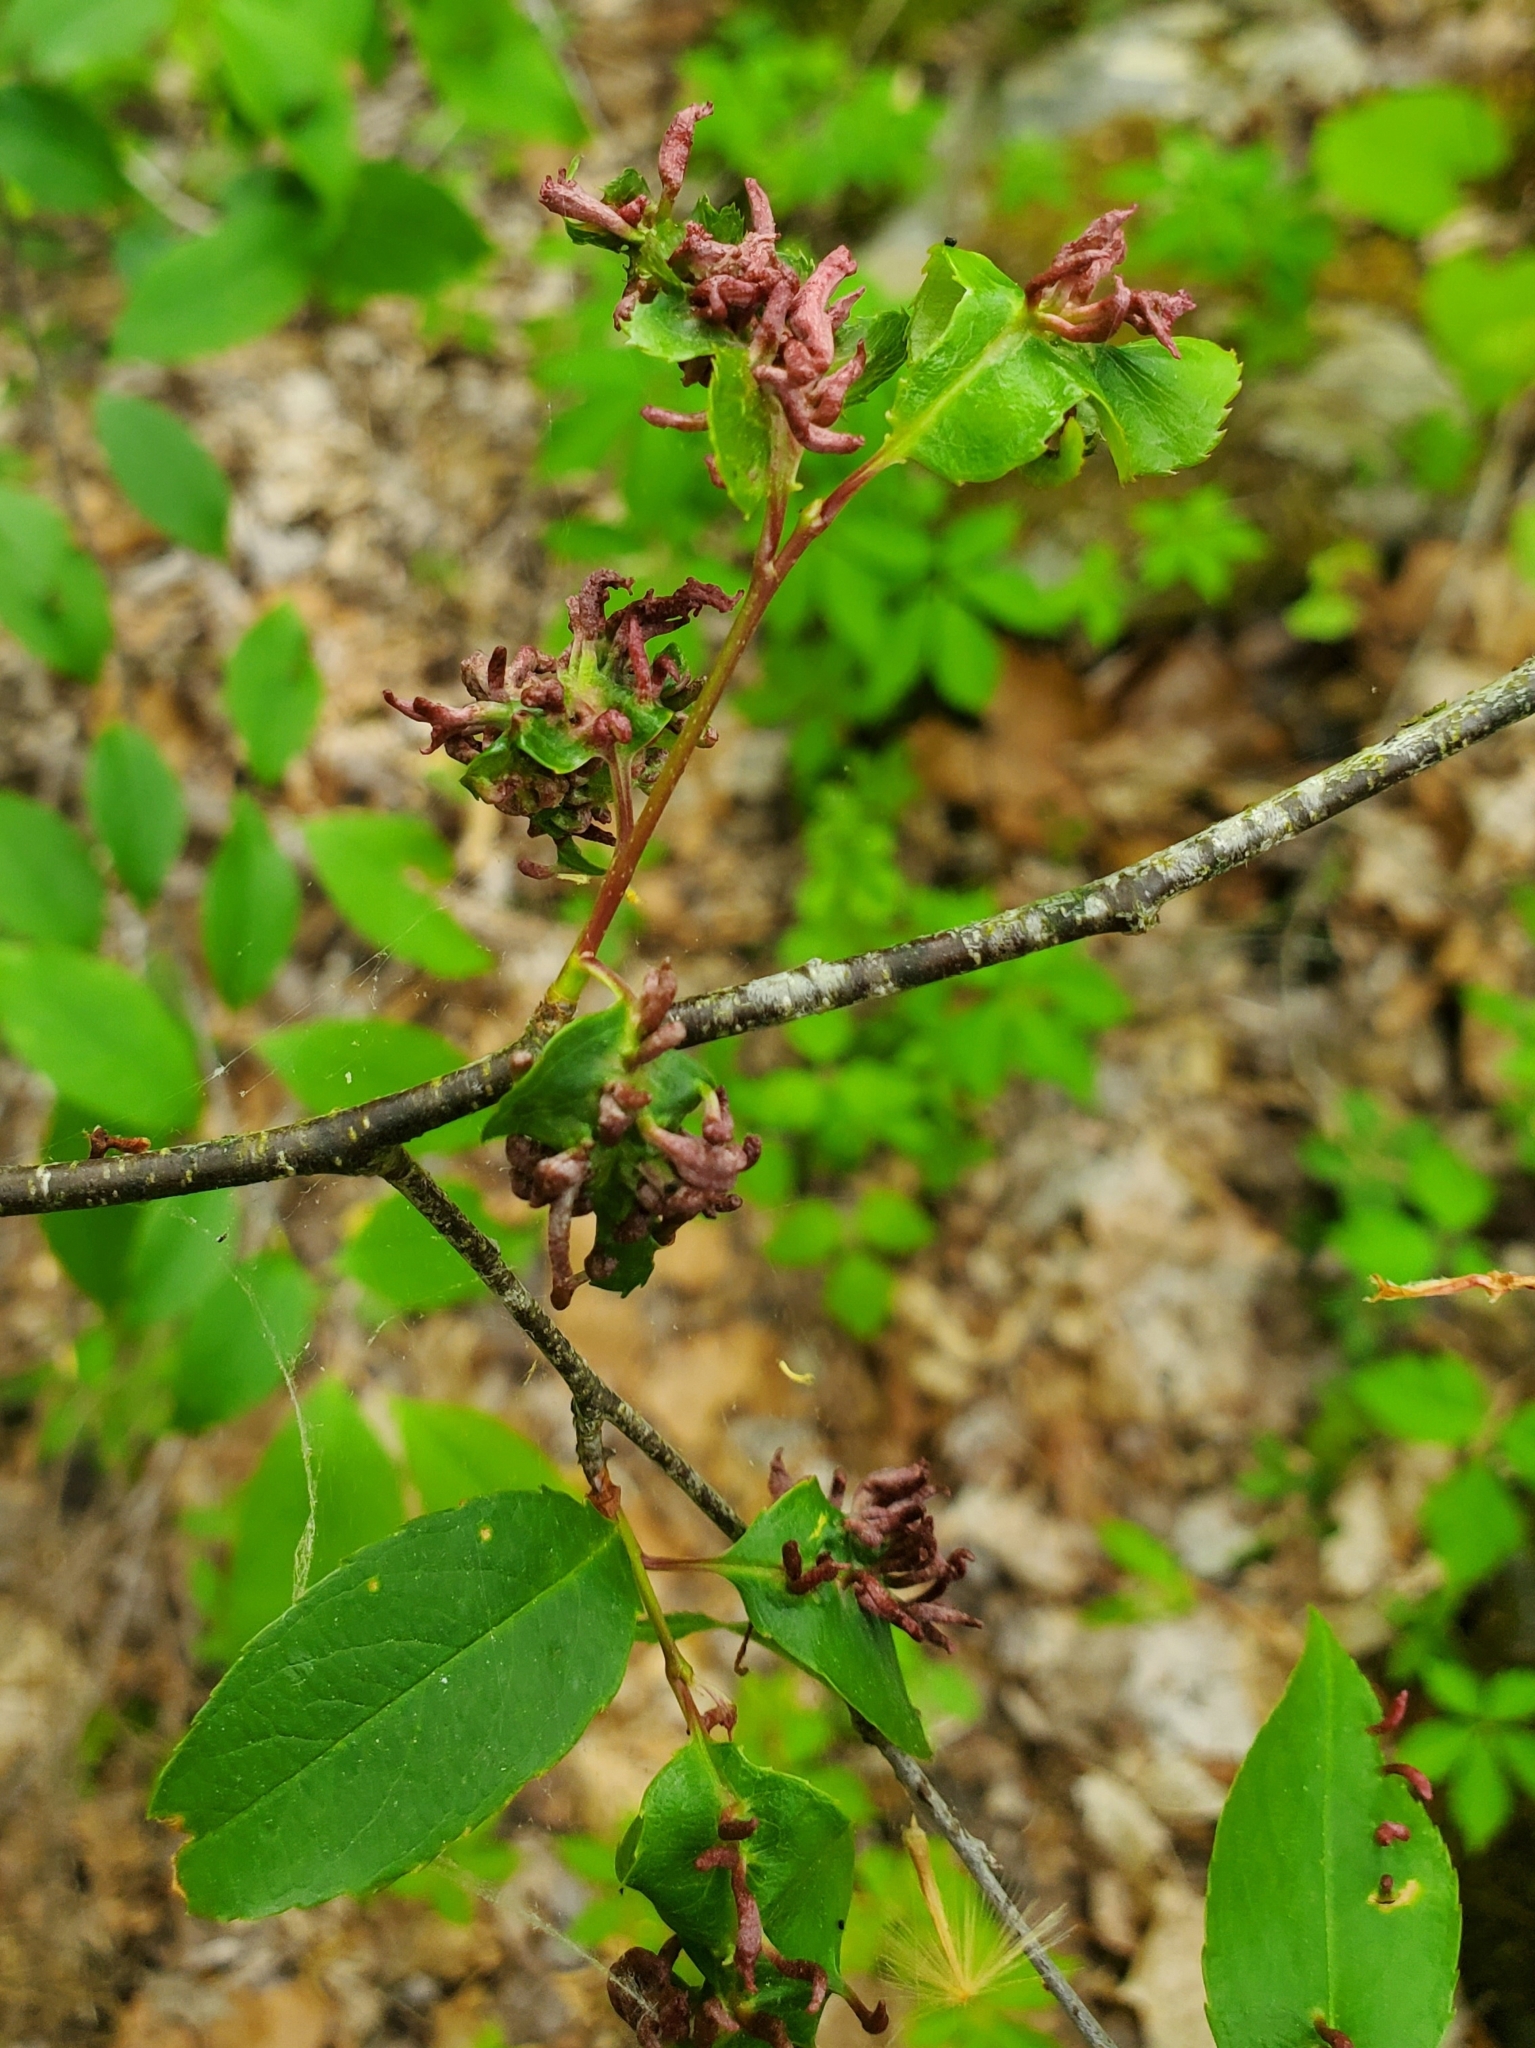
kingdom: Animalia
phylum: Arthropoda
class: Arachnida
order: Trombidiformes
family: Eriophyidae
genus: Eriophyes
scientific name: Eriophyes
